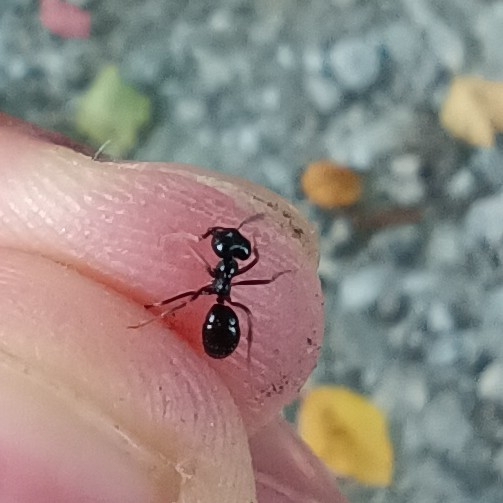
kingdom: Animalia
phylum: Arthropoda
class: Insecta
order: Hymenoptera
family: Formicidae
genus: Lasius
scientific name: Lasius fuliginosus
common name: Jet ant
